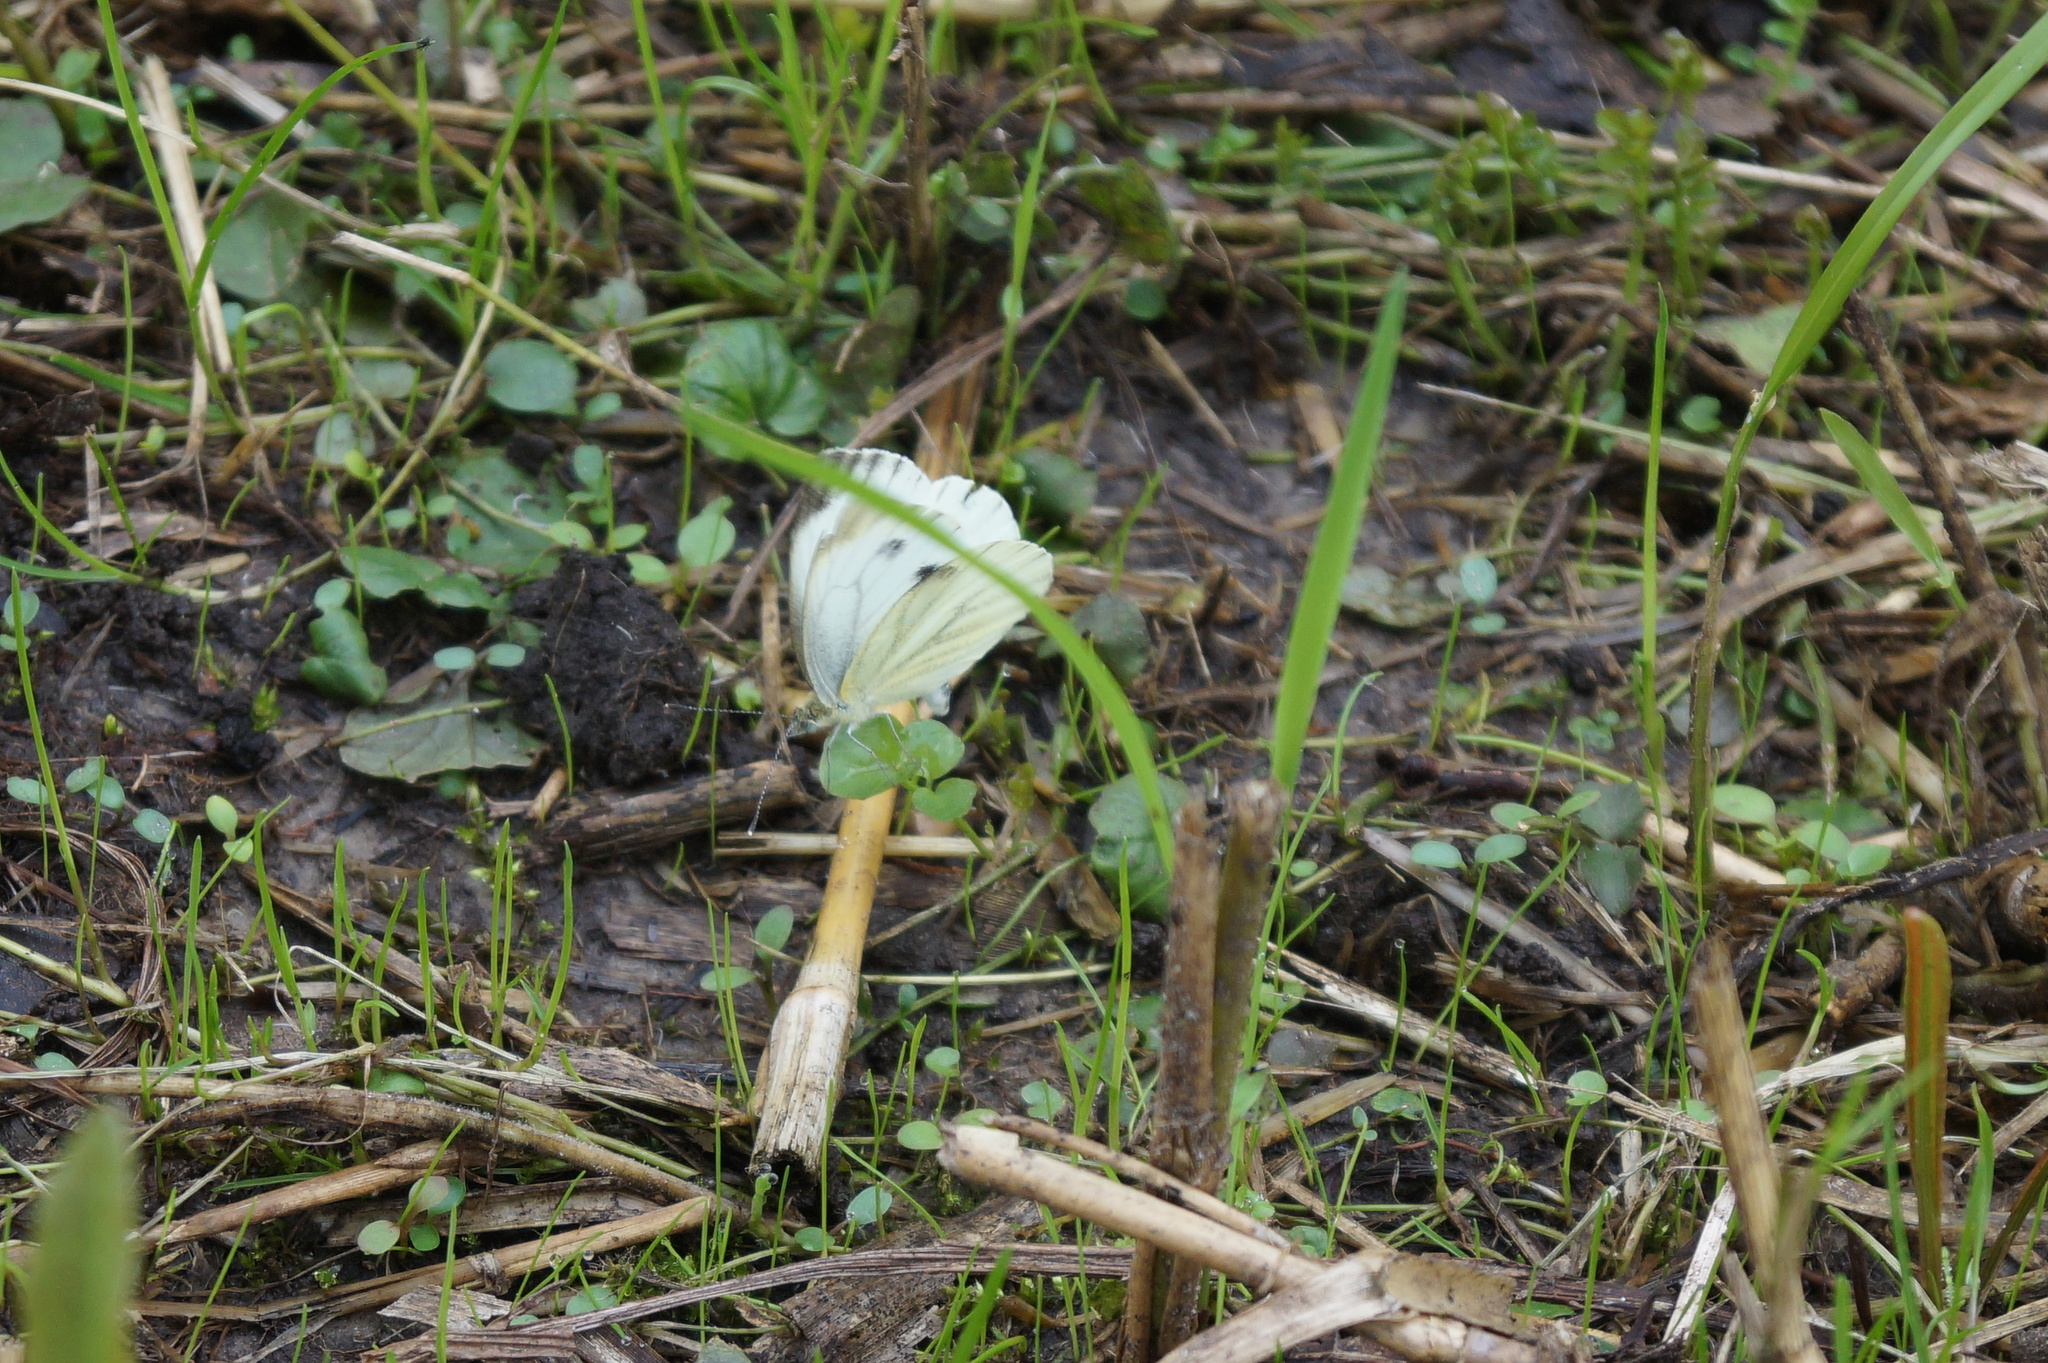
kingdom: Animalia
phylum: Arthropoda
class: Insecta
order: Lepidoptera
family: Pieridae
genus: Pieris
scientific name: Pieris napi
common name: Green-veined white
